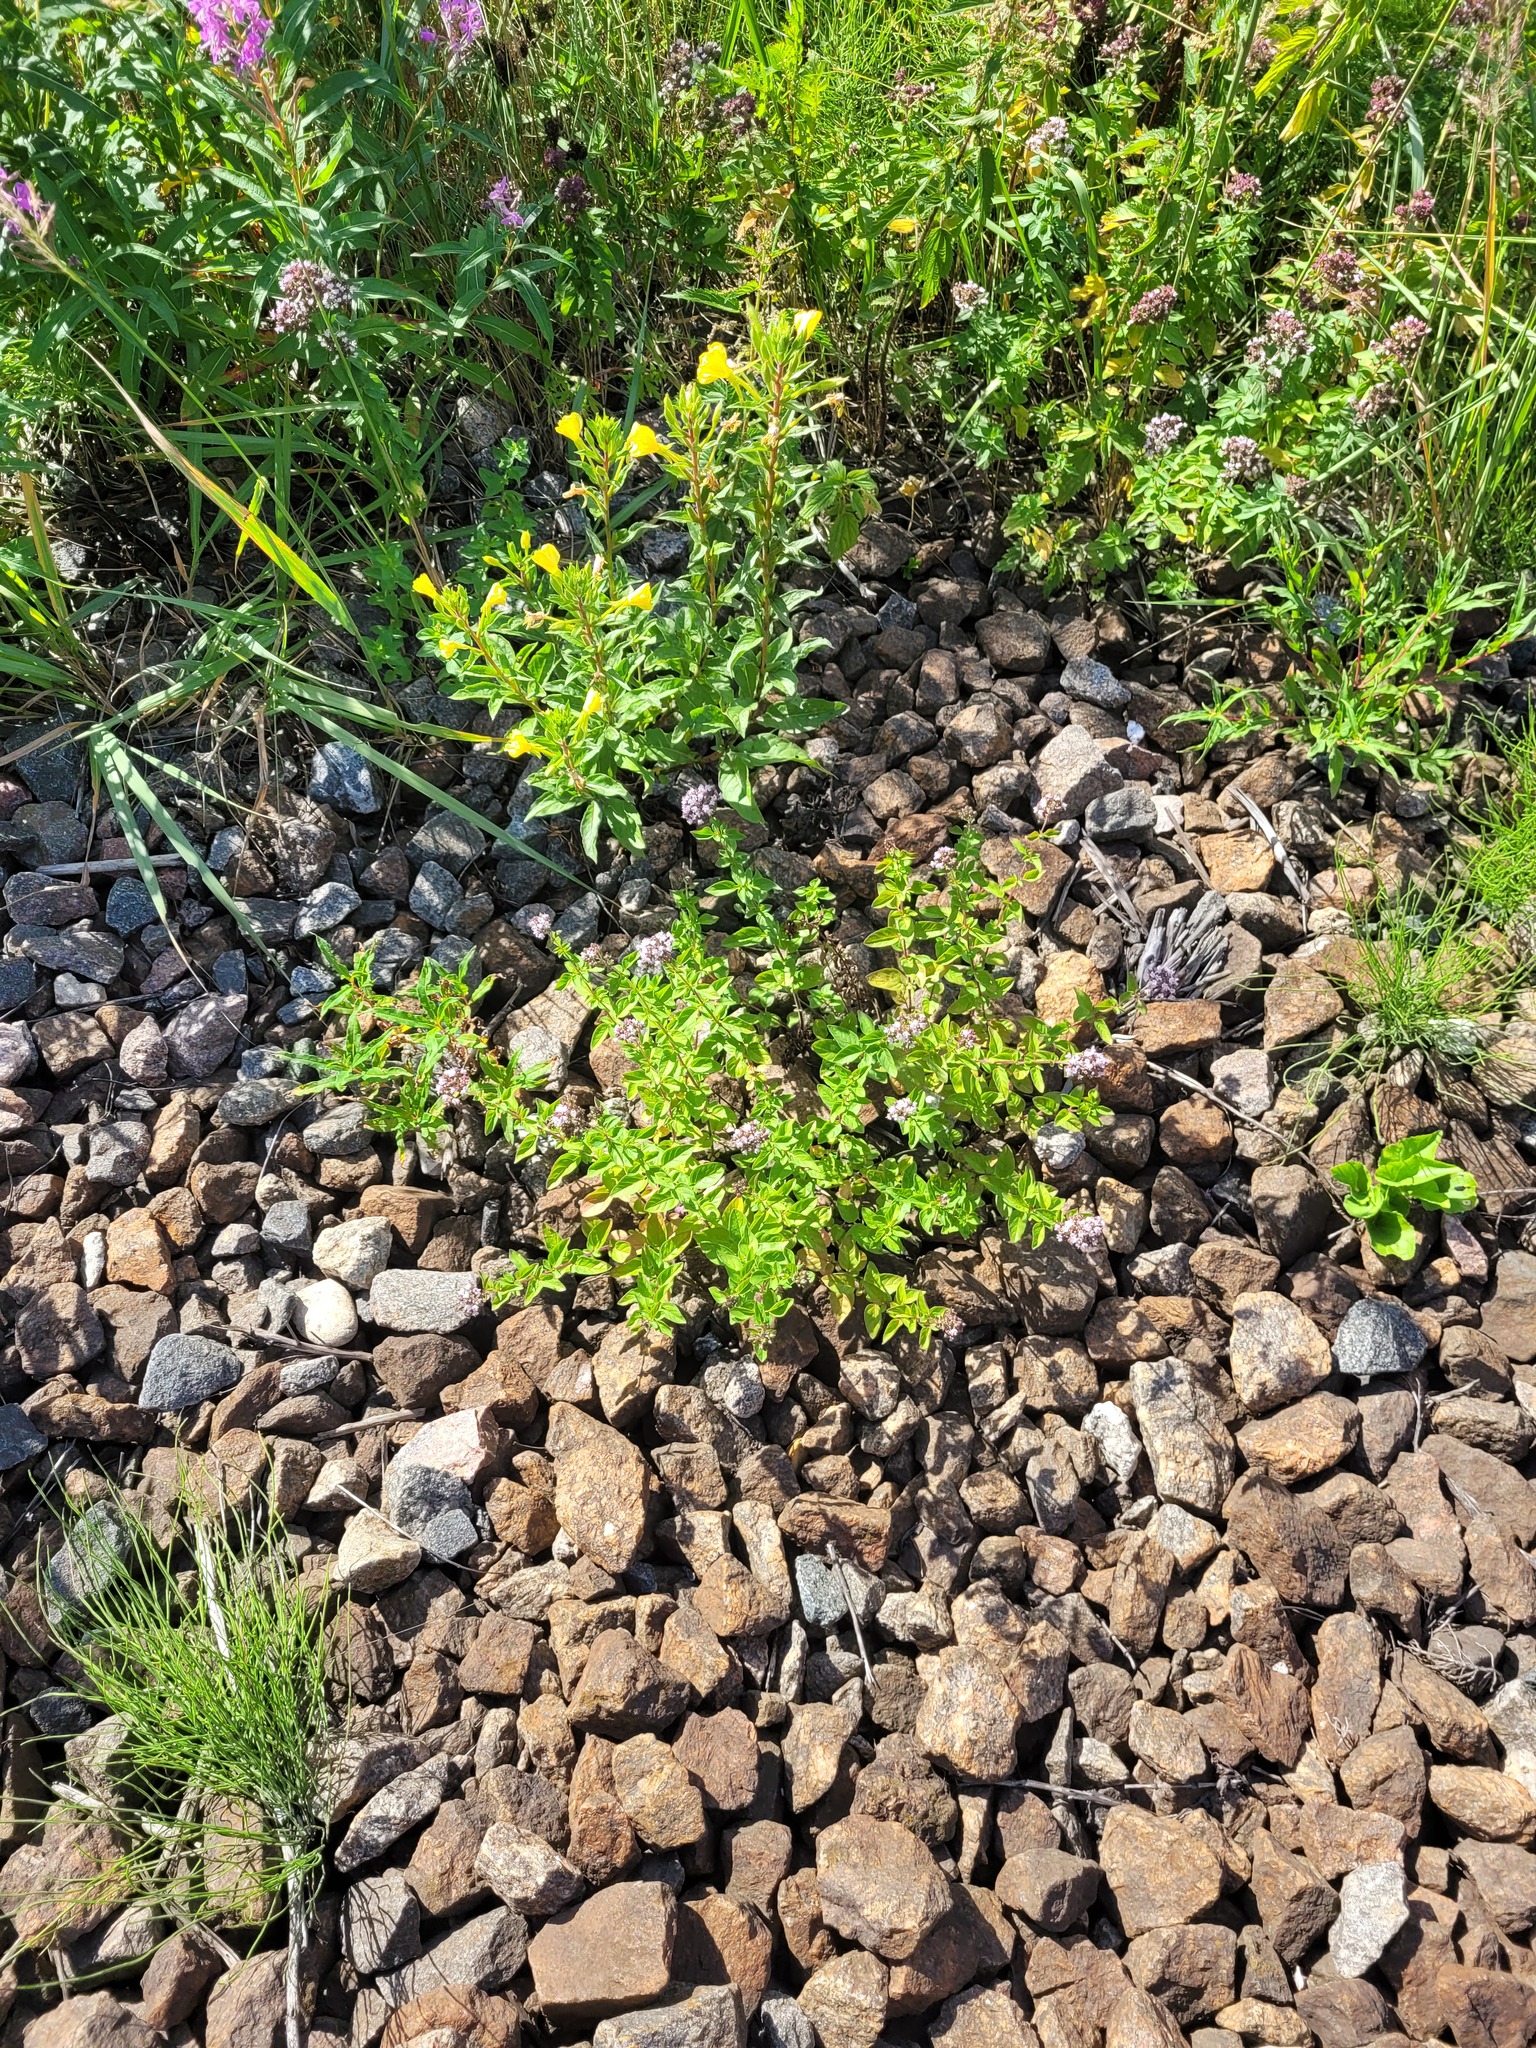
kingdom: Plantae
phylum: Tracheophyta
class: Magnoliopsida
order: Lamiales
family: Lamiaceae
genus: Origanum
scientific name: Origanum vulgare
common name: Wild marjoram
